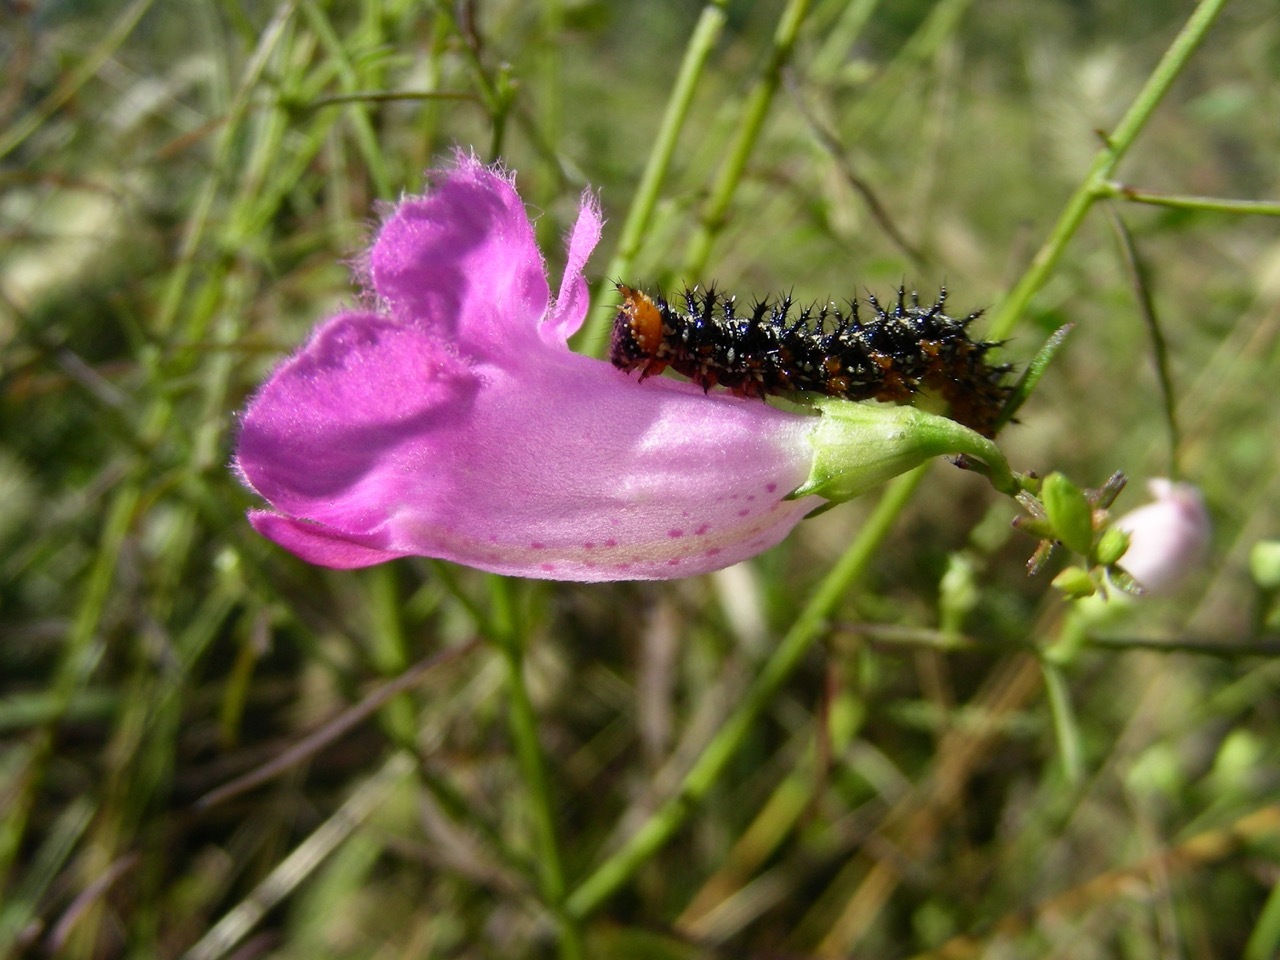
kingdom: Animalia
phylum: Arthropoda
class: Insecta
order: Lepidoptera
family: Nymphalidae
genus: Junonia
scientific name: Junonia coenia
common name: Common buckeye
